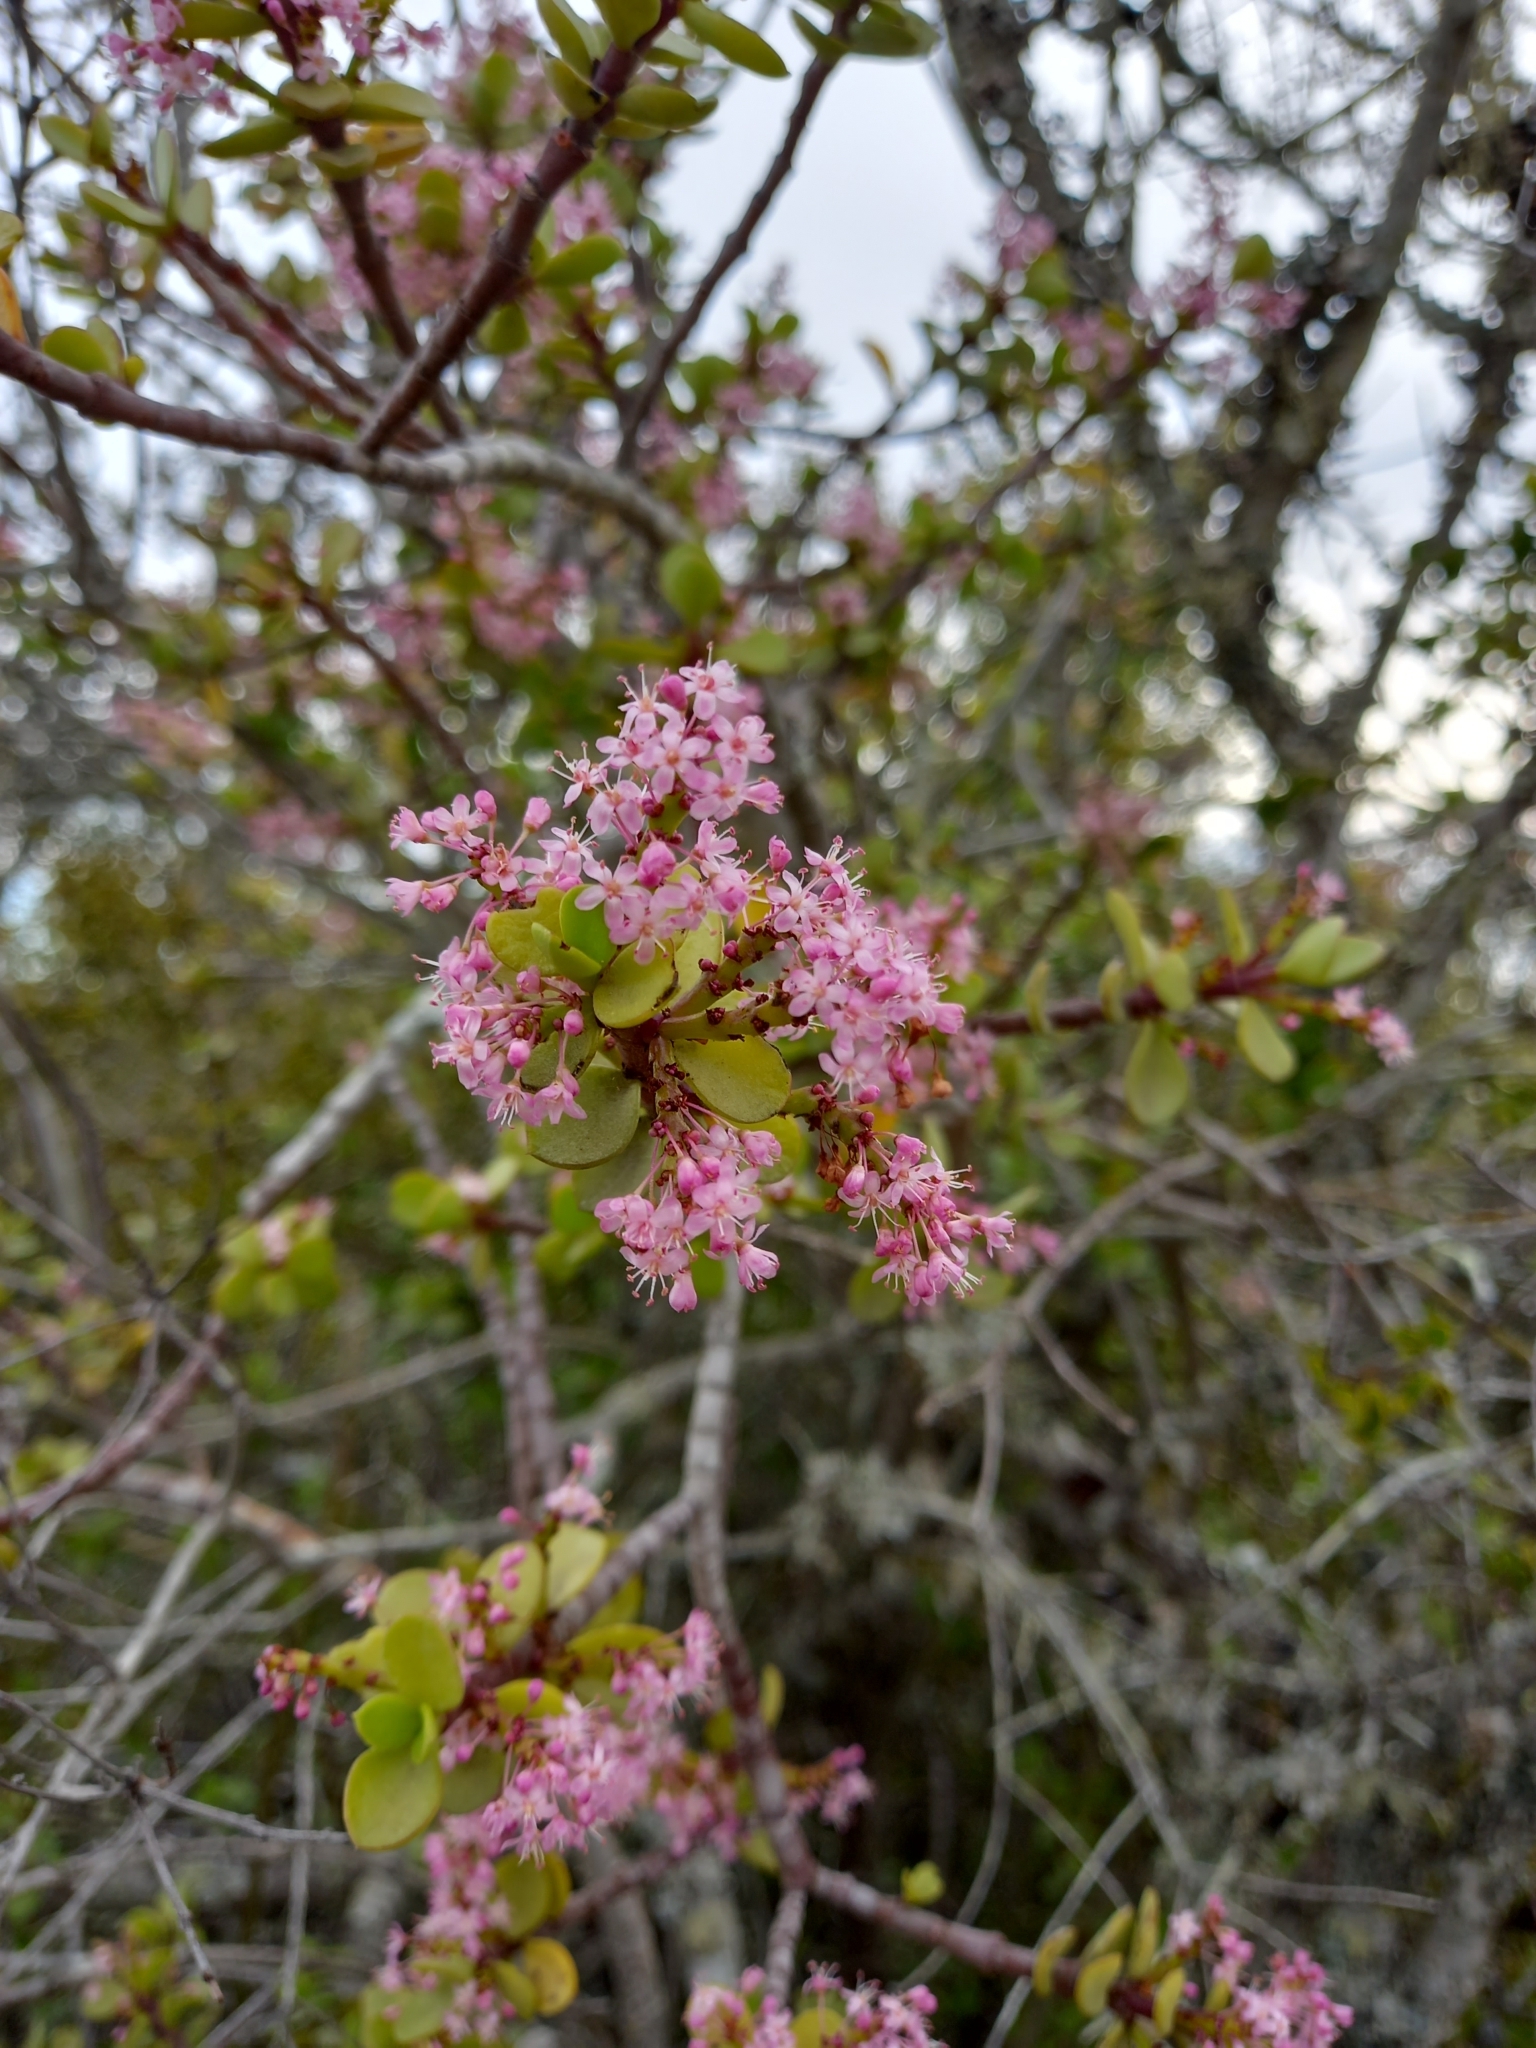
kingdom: Plantae
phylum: Tracheophyta
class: Magnoliopsida
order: Caryophyllales
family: Didiereaceae
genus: Portulacaria
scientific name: Portulacaria afra
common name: Elephant-bush
